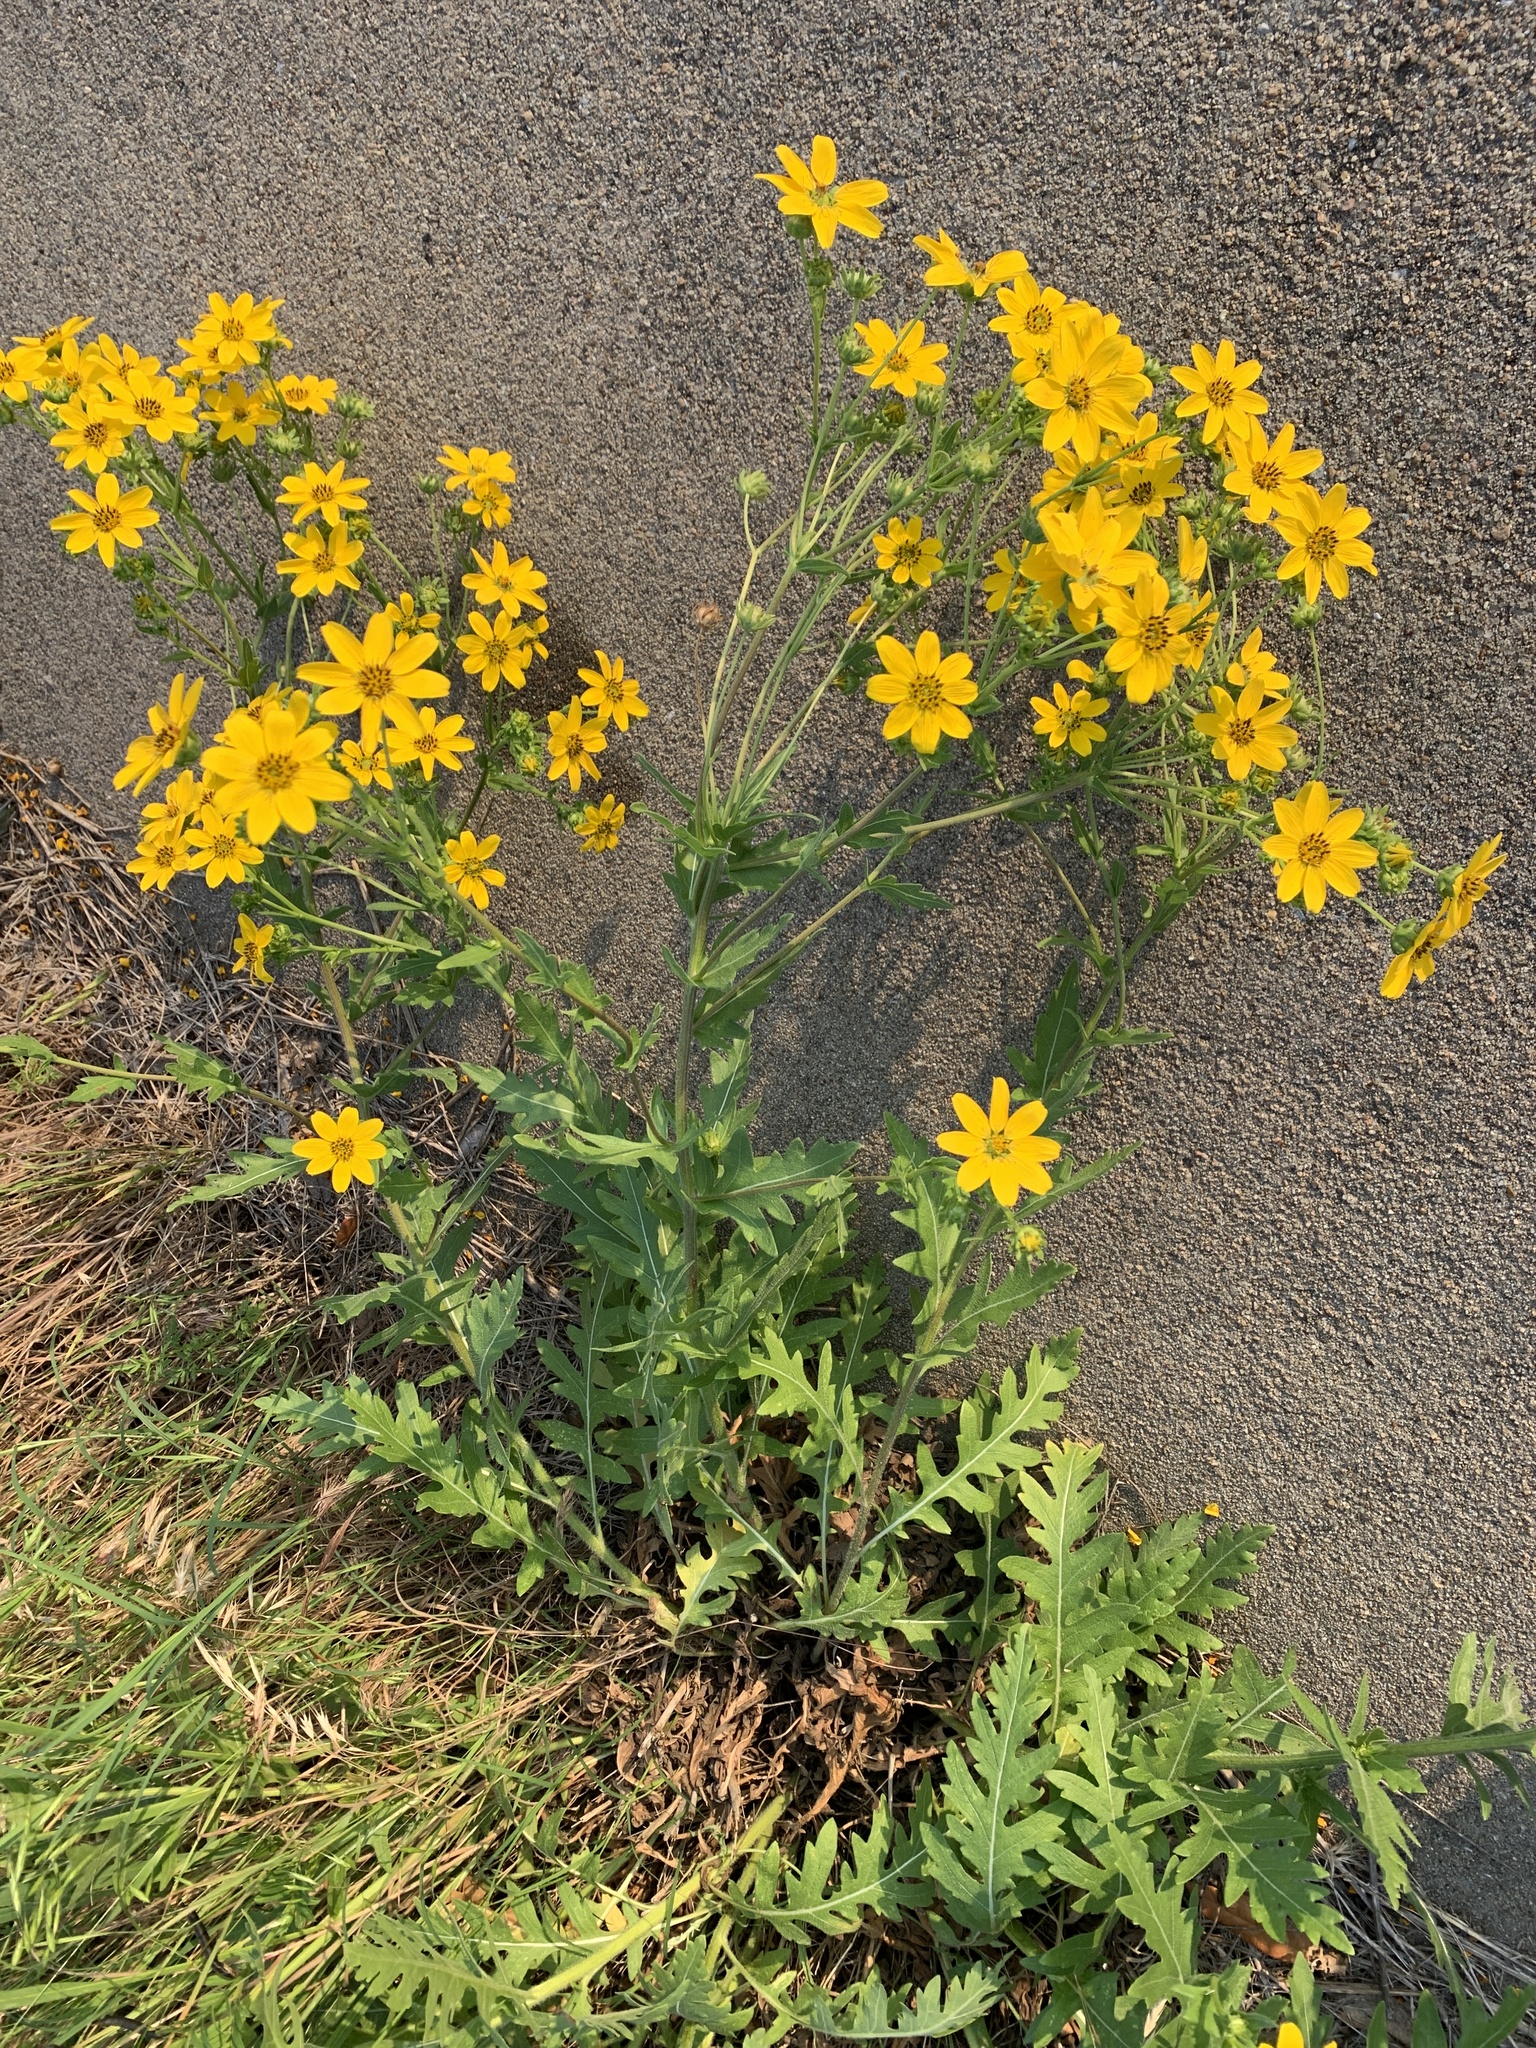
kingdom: Plantae
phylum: Tracheophyta
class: Magnoliopsida
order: Asterales
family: Asteraceae
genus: Engelmannia
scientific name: Engelmannia peristenia
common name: Engelmann's daisy
